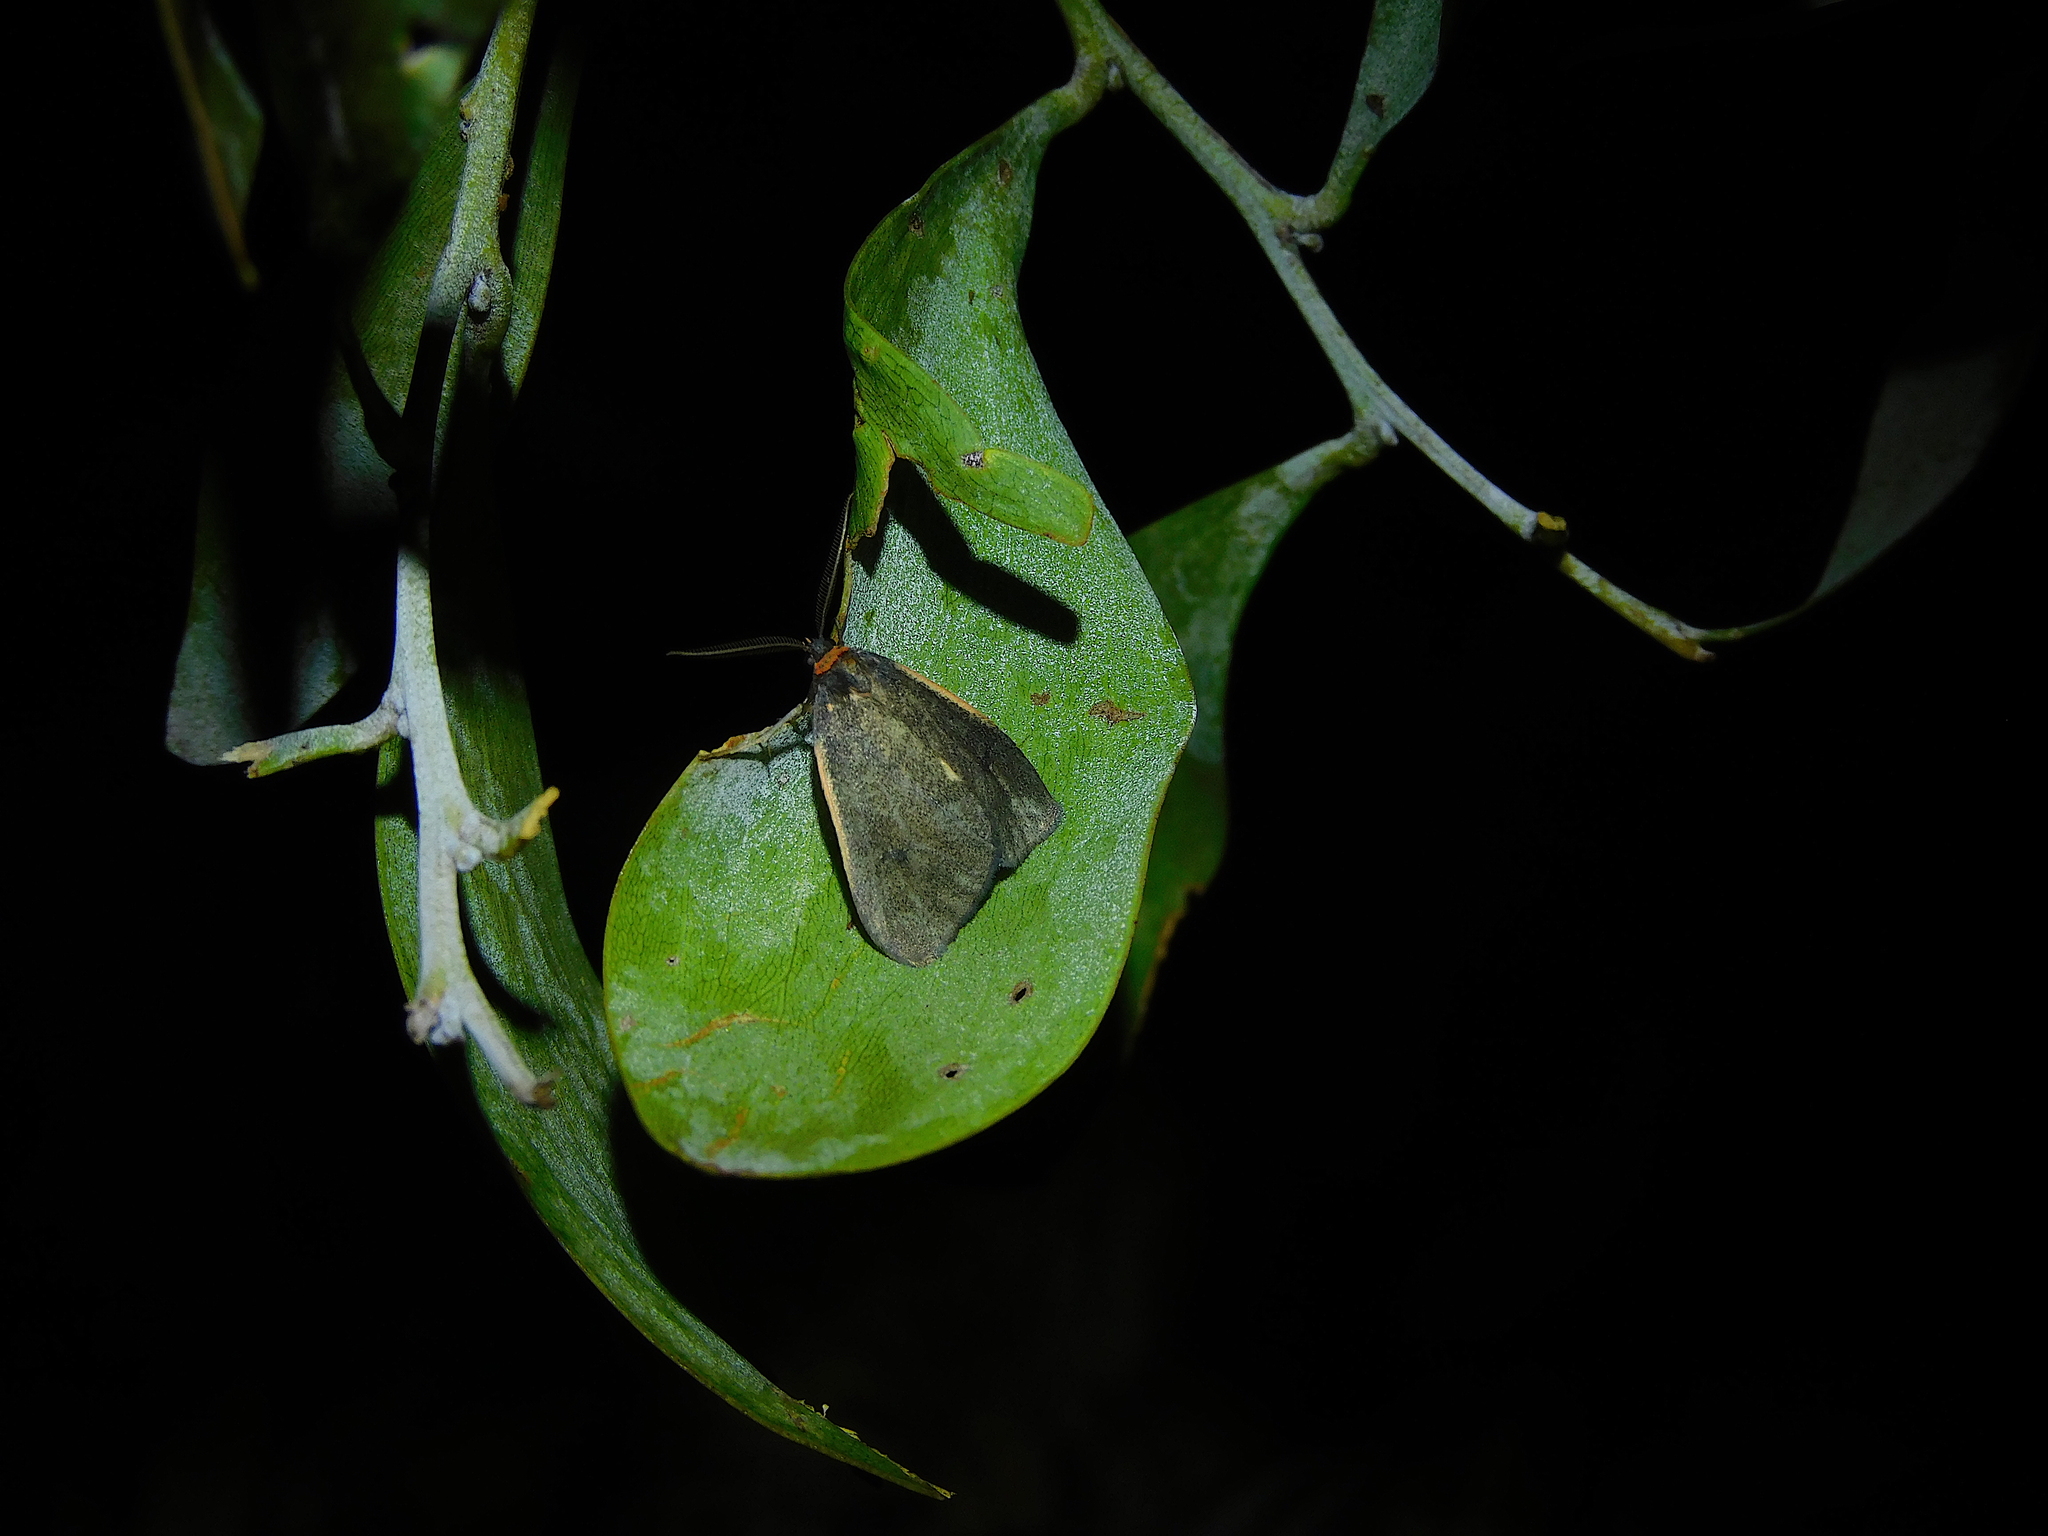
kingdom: Animalia
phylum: Arthropoda
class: Insecta
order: Lepidoptera
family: Erebidae
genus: Castulo
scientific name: Castulo doubledayi
